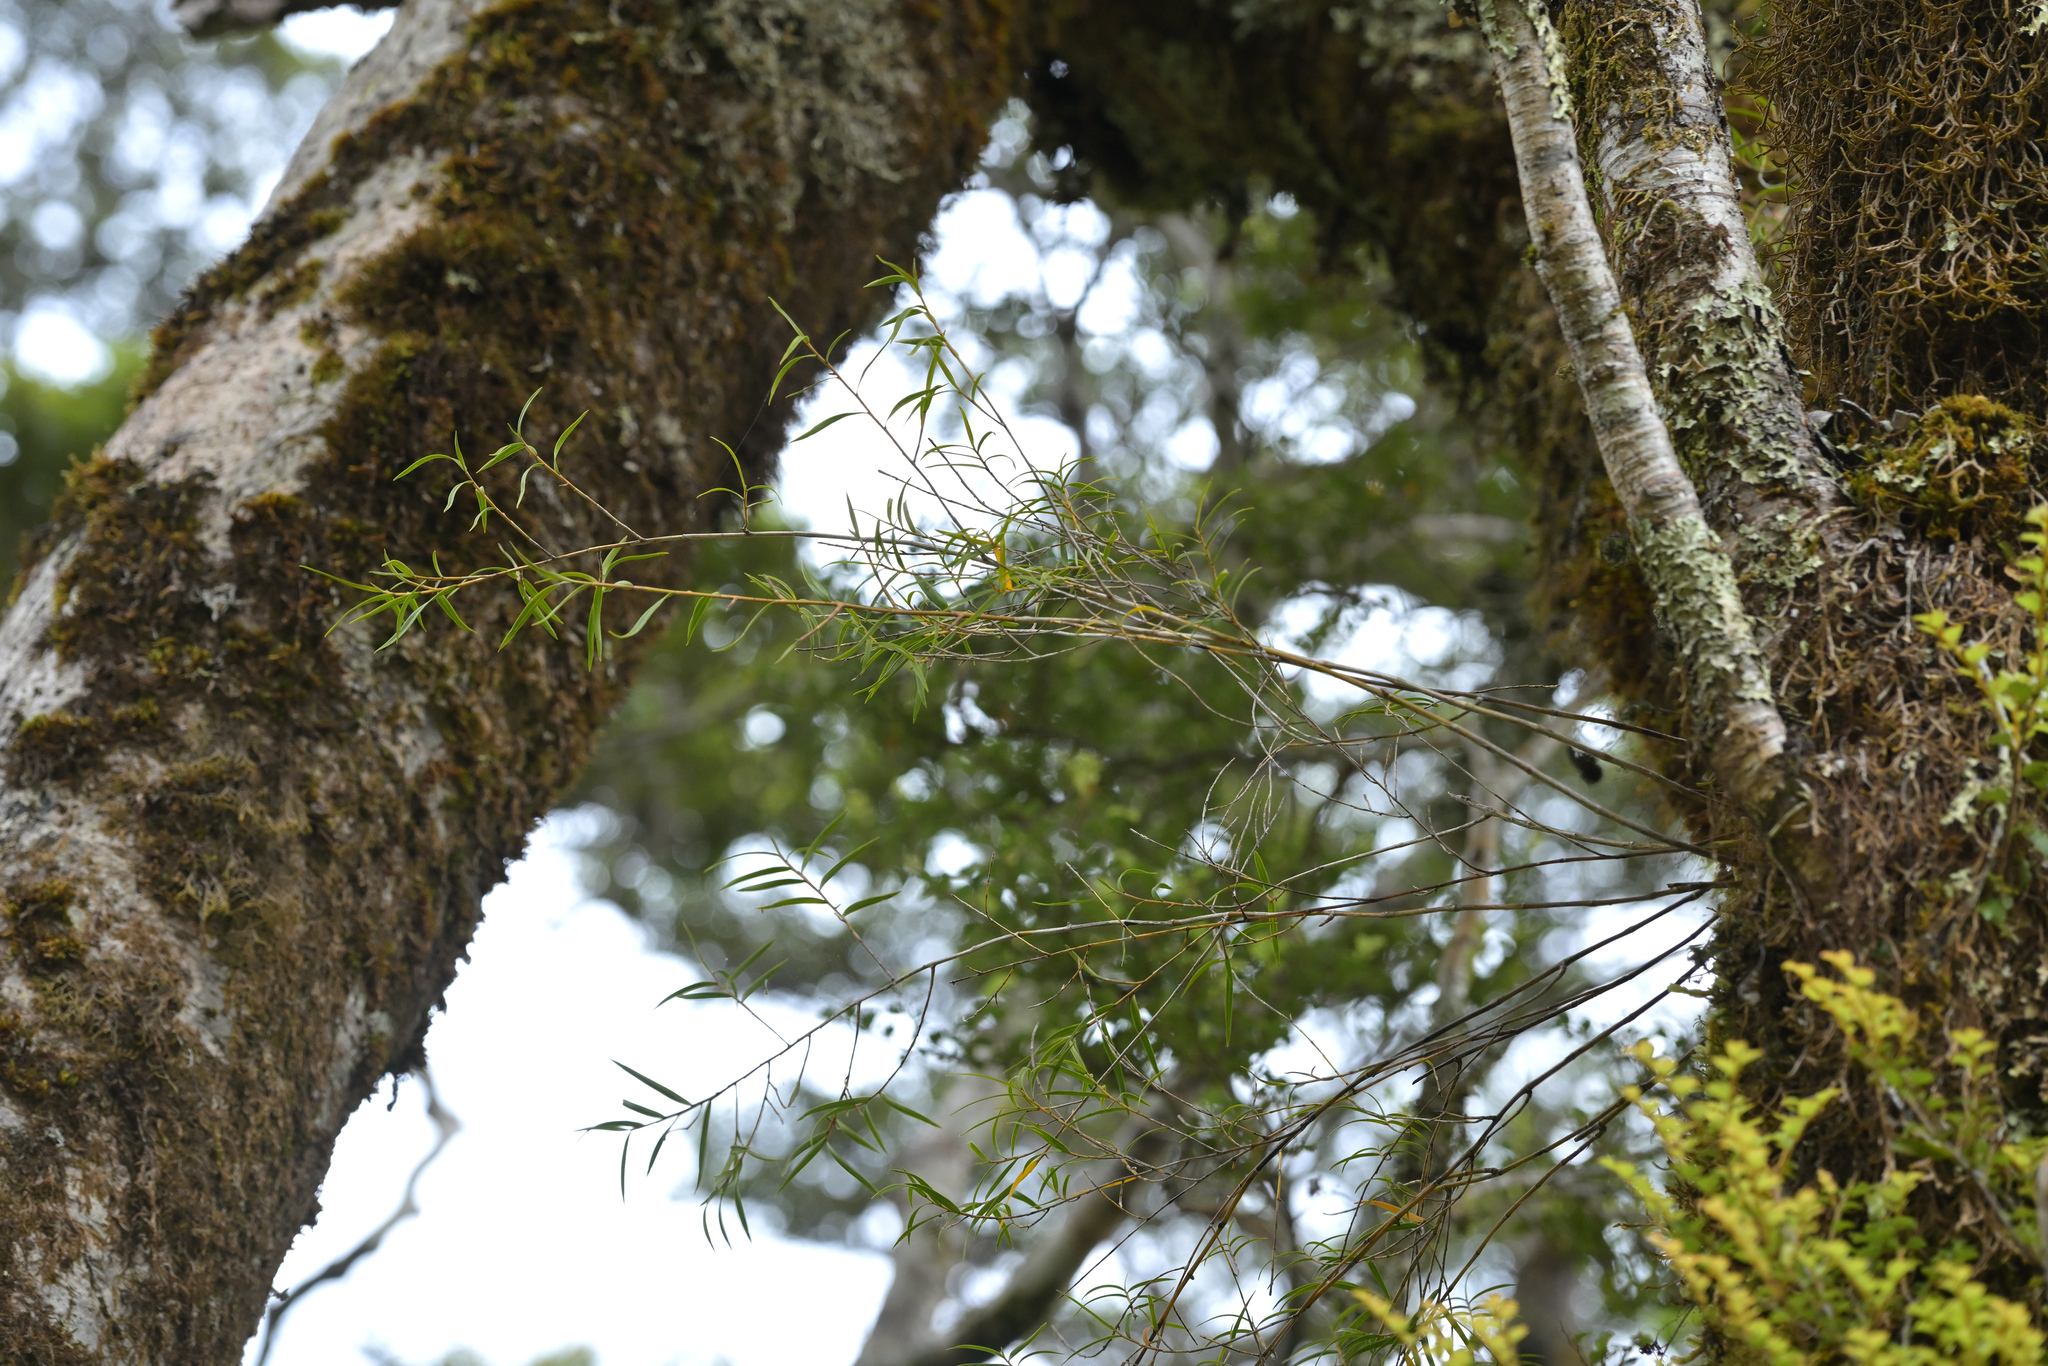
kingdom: Plantae
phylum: Tracheophyta
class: Liliopsida
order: Asparagales
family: Orchidaceae
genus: Dendrobium
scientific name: Dendrobium cunninghamii
